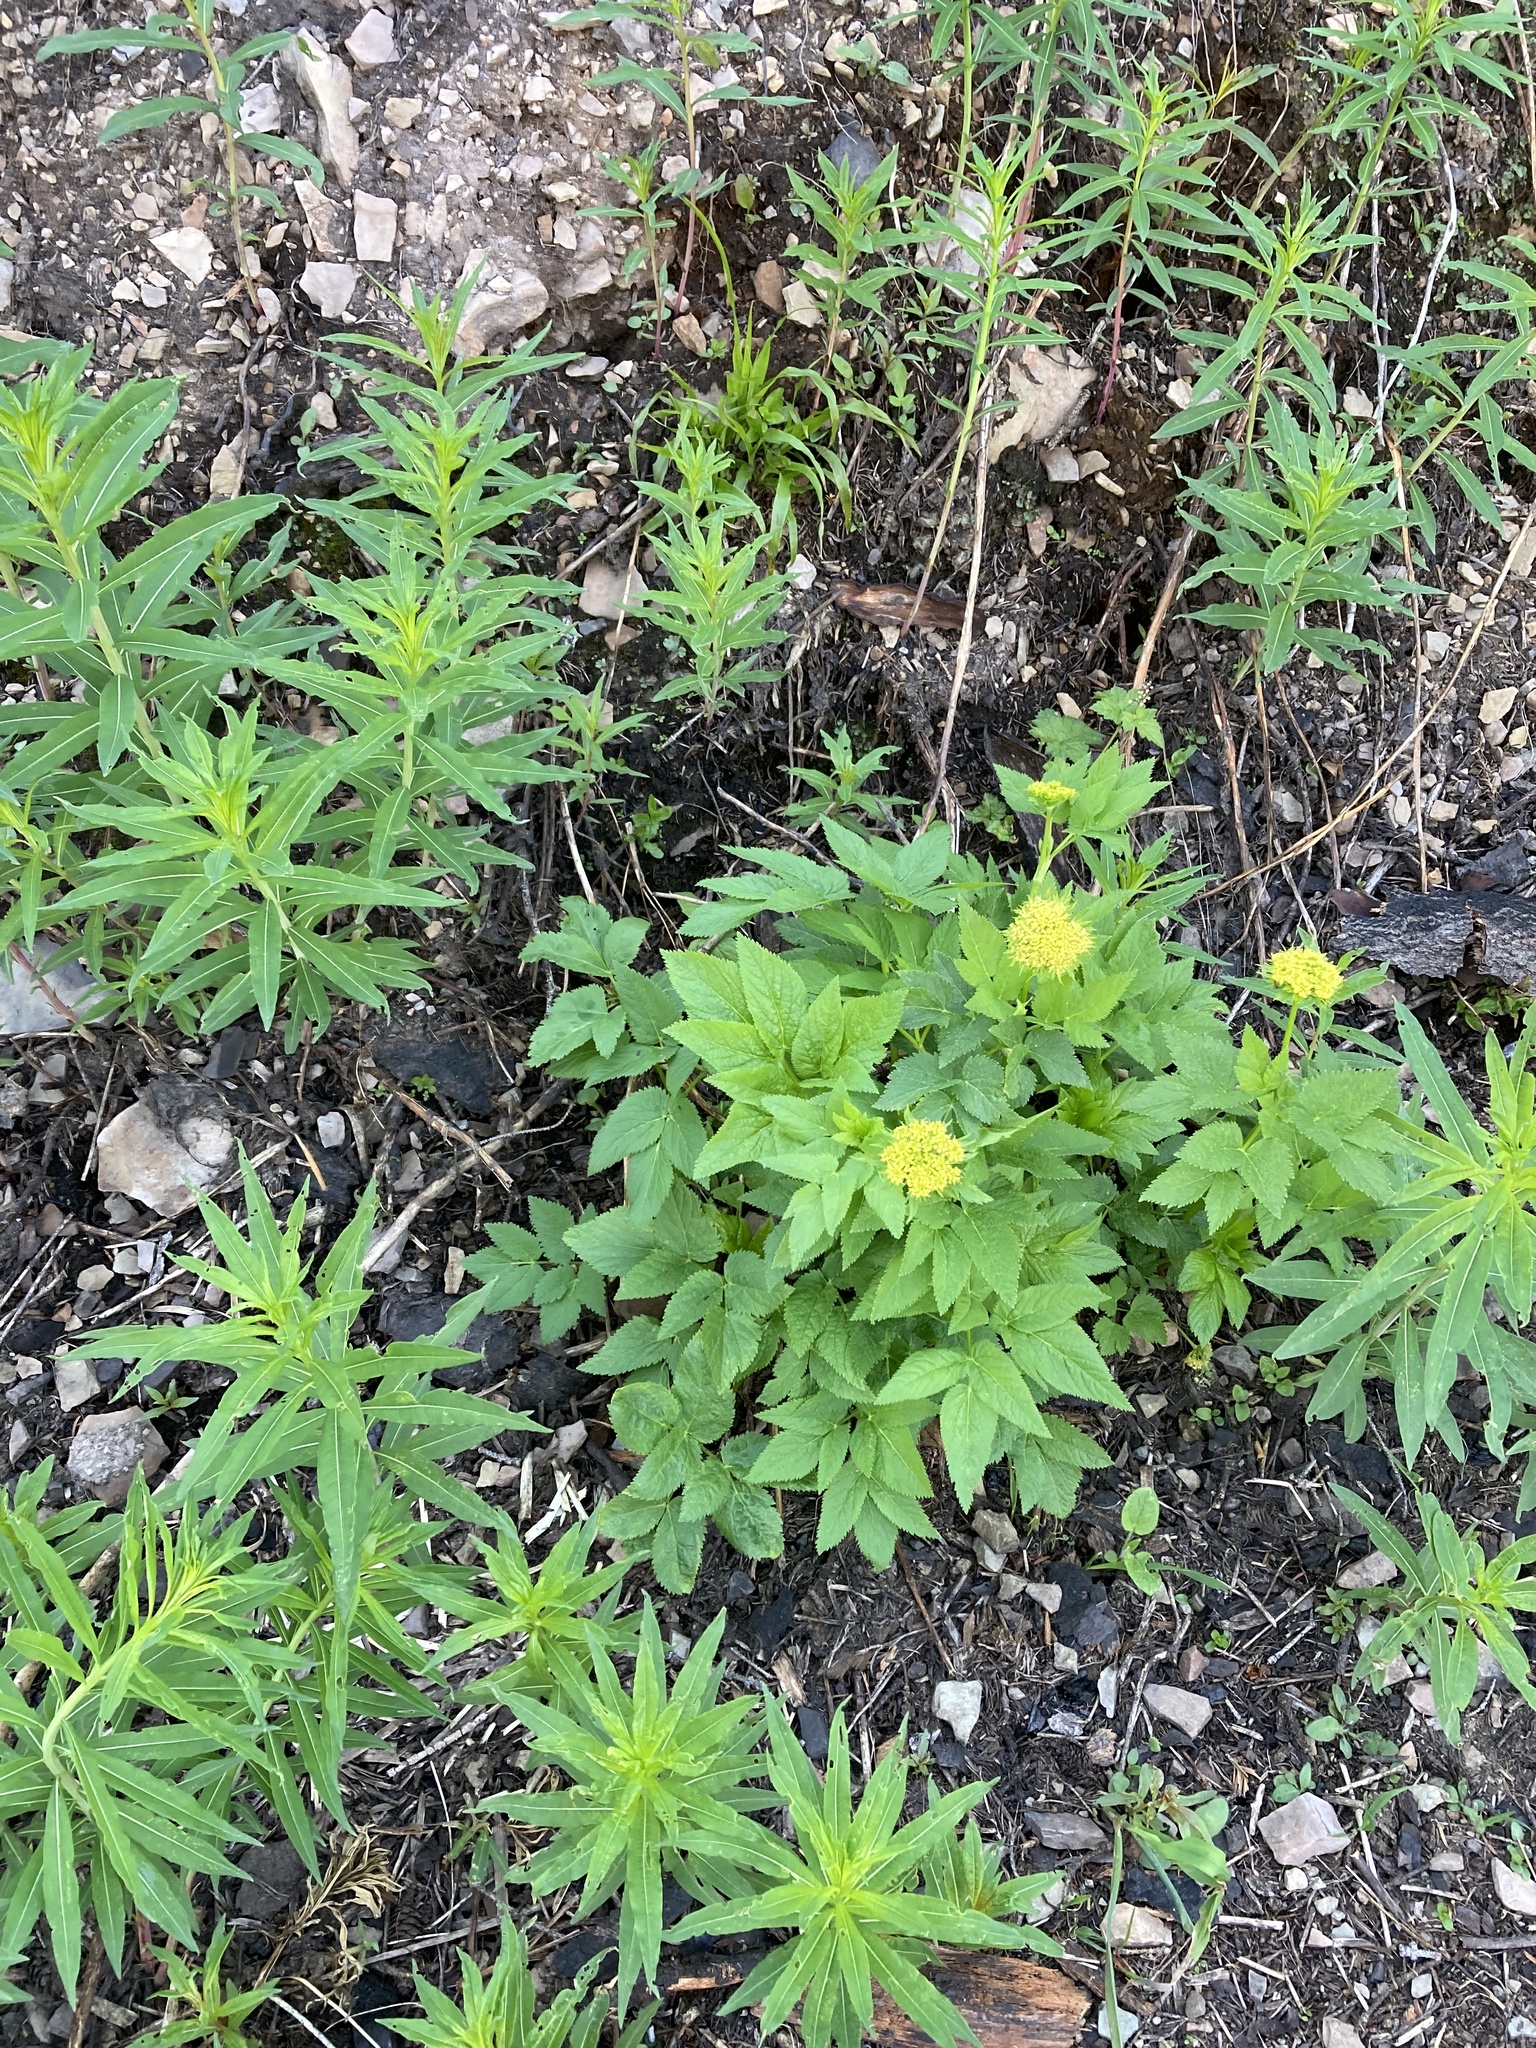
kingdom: Plantae
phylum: Tracheophyta
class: Magnoliopsida
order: Apiales
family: Apiaceae
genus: Angelica
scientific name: Angelica dawsonii
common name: Dawson's angelica
